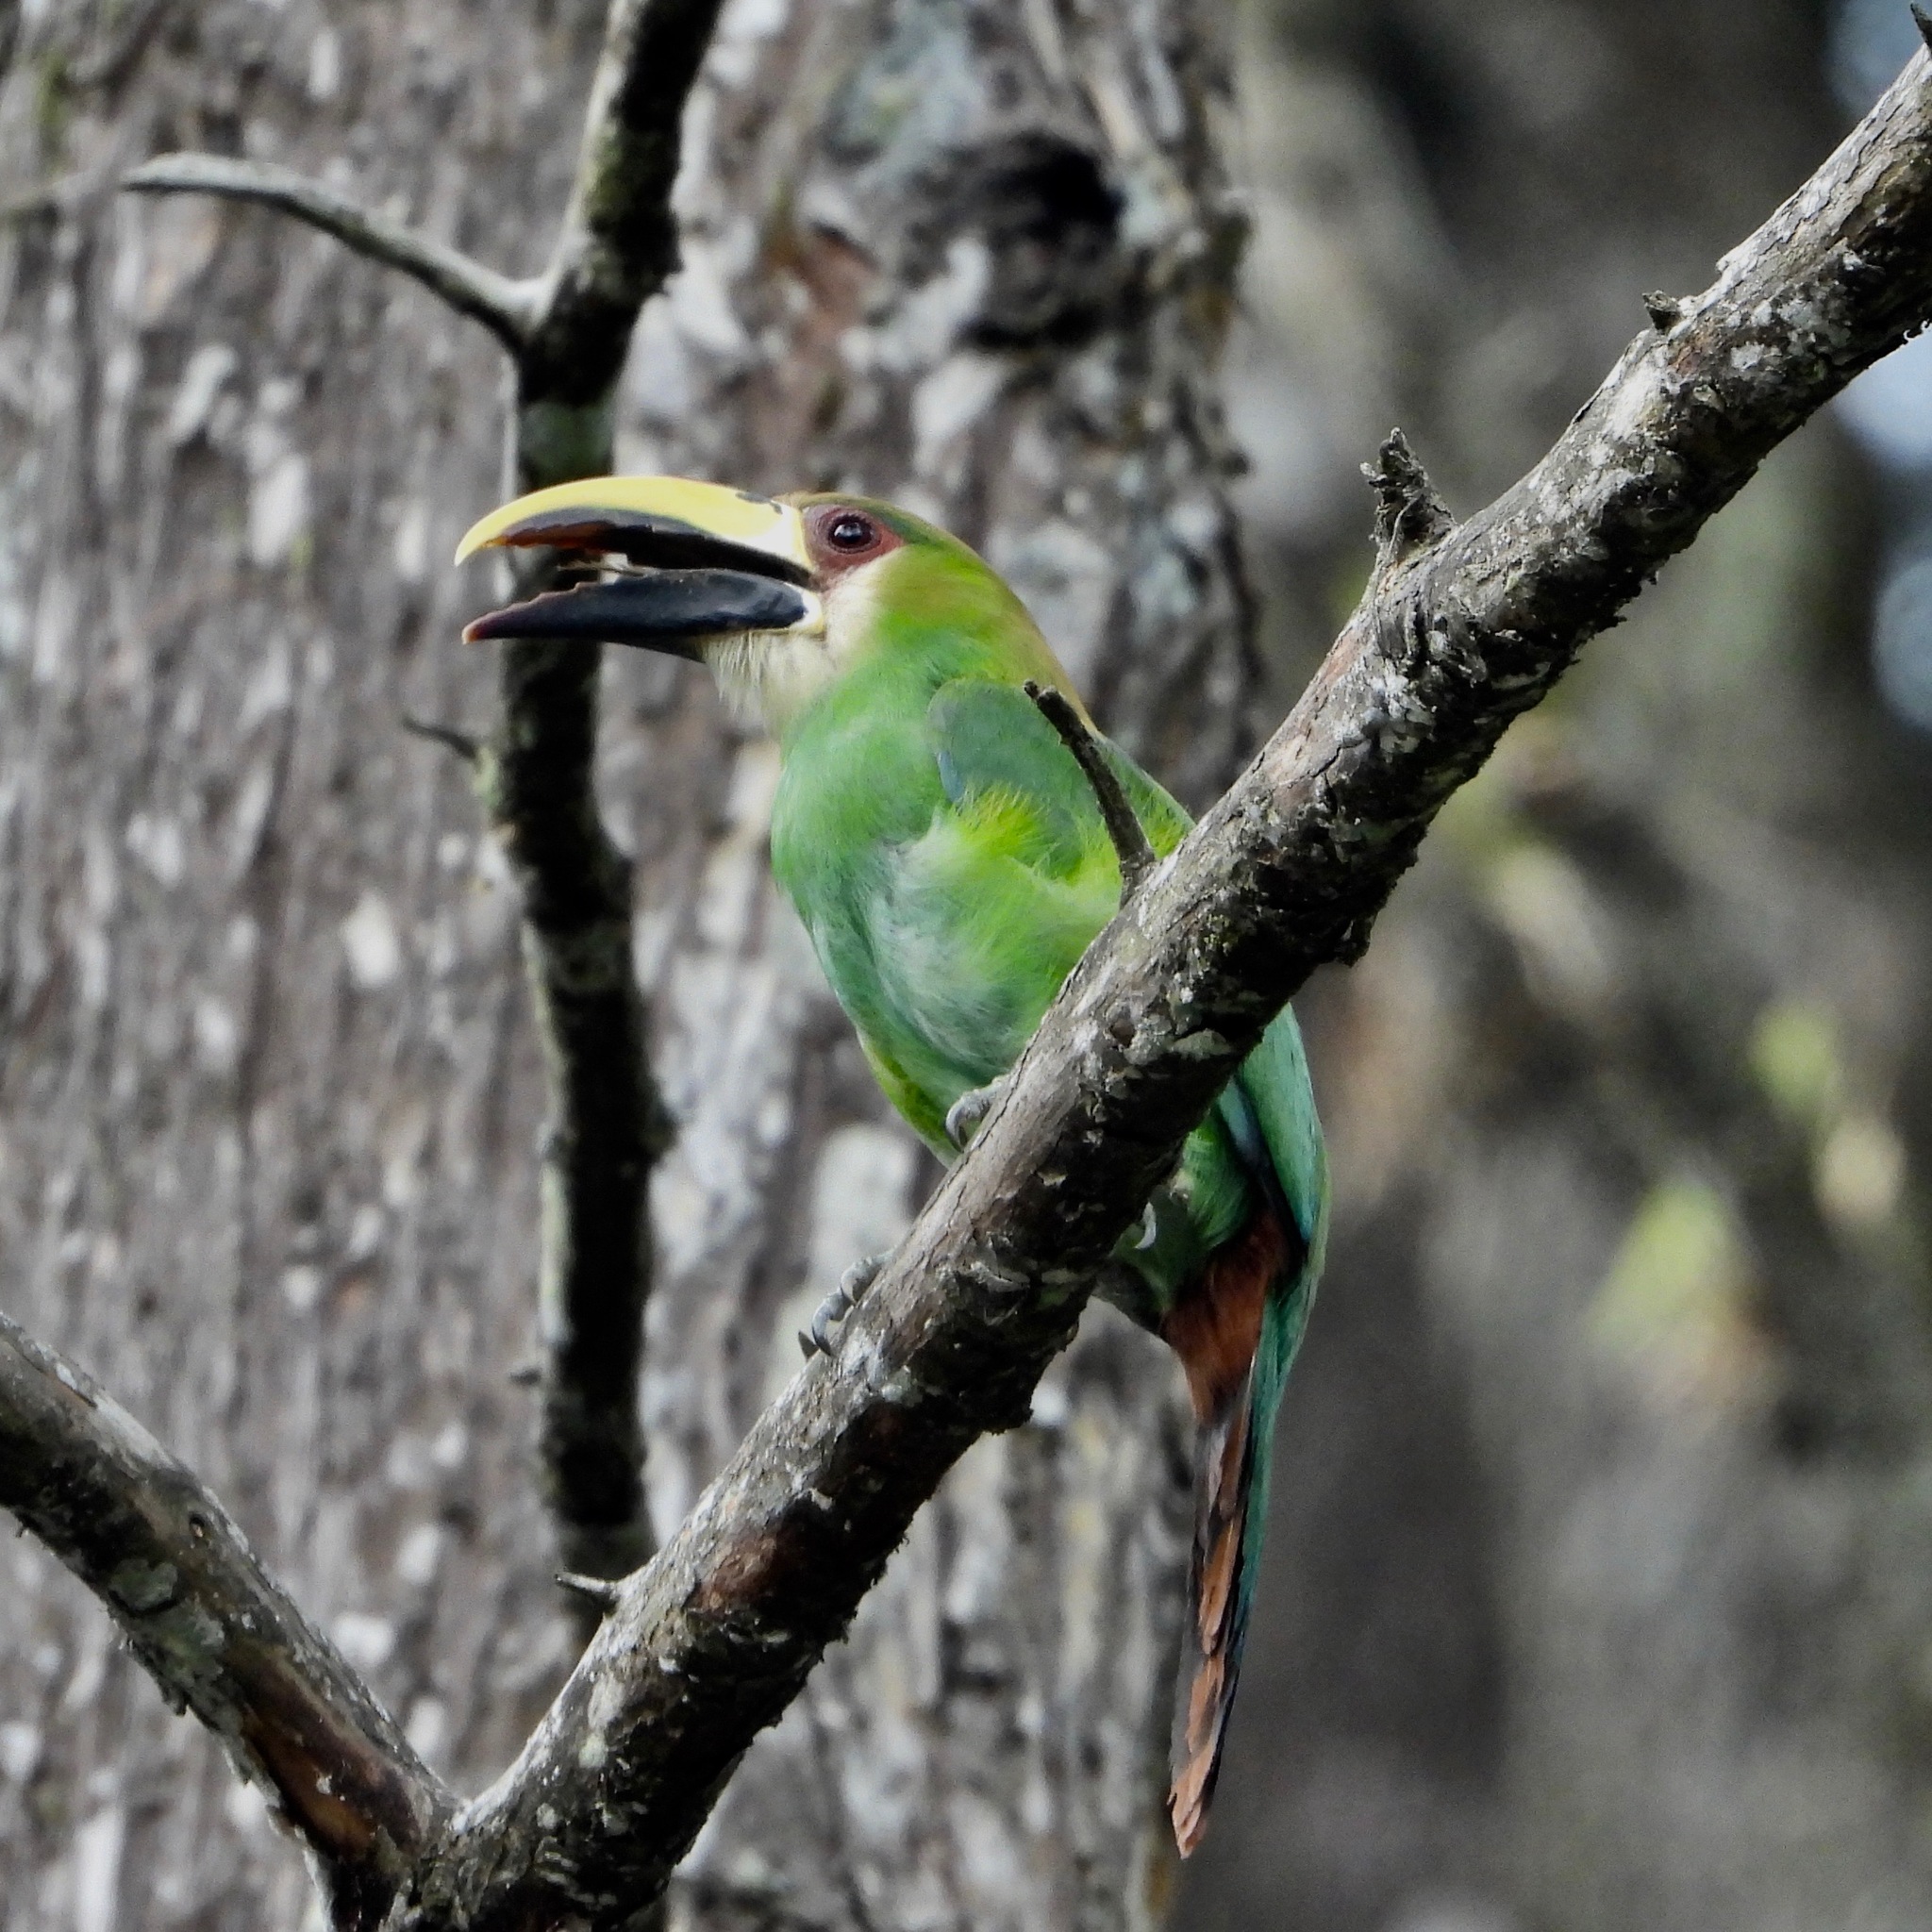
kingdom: Animalia
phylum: Chordata
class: Aves
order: Piciformes
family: Ramphastidae
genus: Aulacorhynchus
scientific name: Aulacorhynchus prasinus
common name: Emerald toucanet
